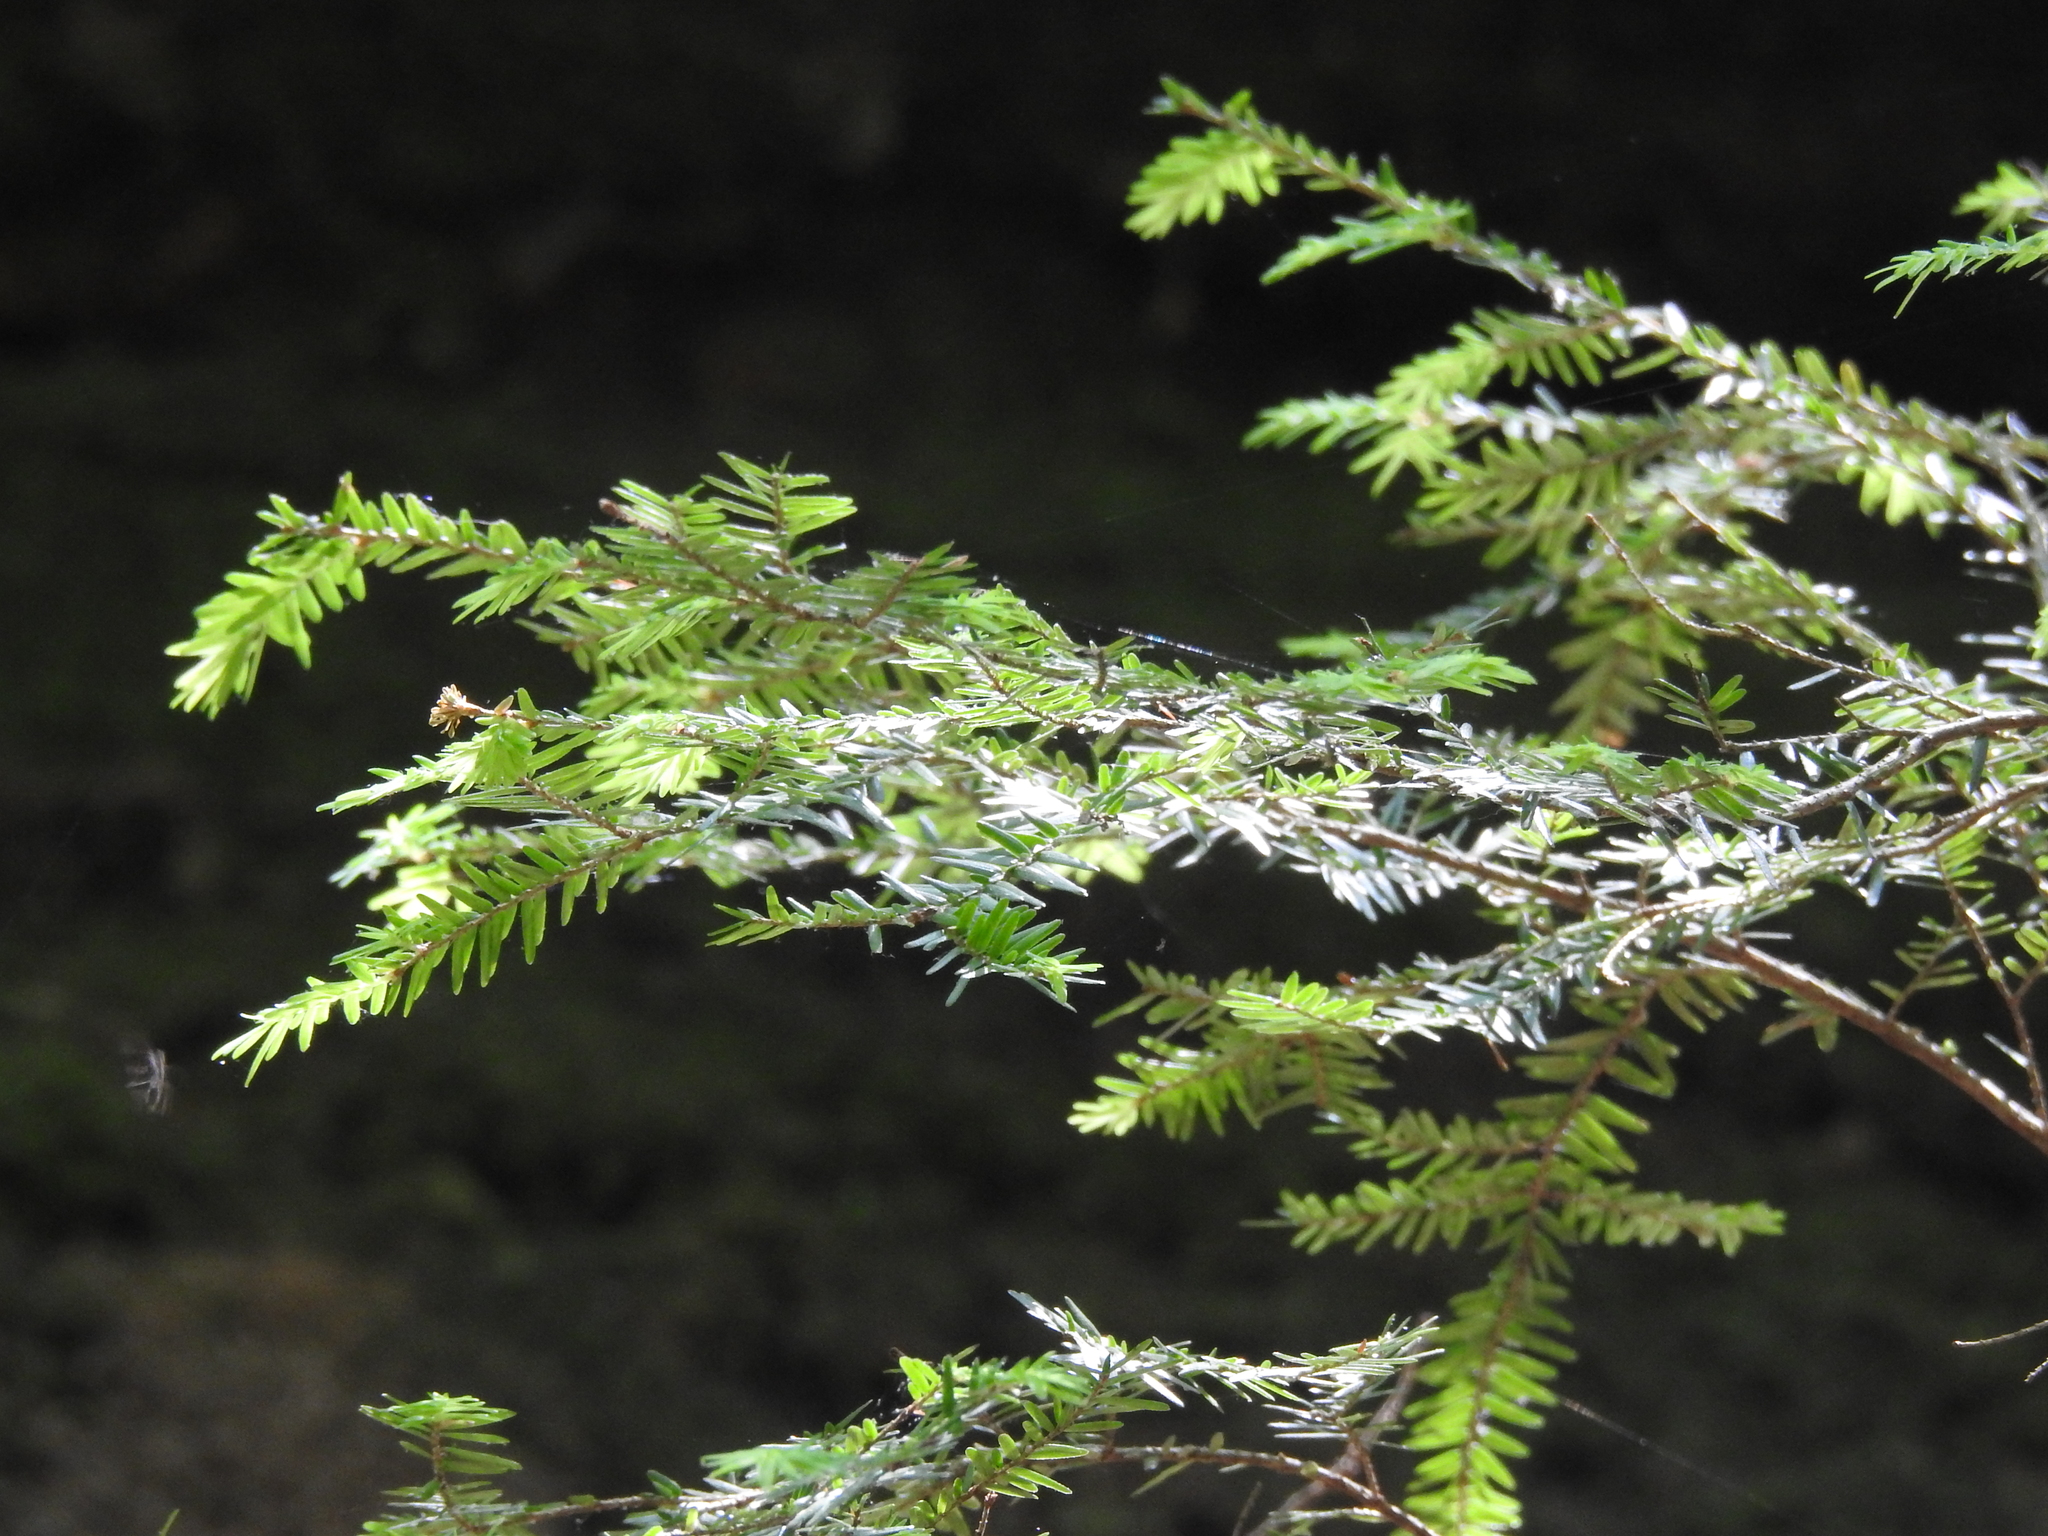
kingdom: Plantae
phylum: Tracheophyta
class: Pinopsida
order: Pinales
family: Pinaceae
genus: Tsuga
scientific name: Tsuga canadensis
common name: Eastern hemlock
